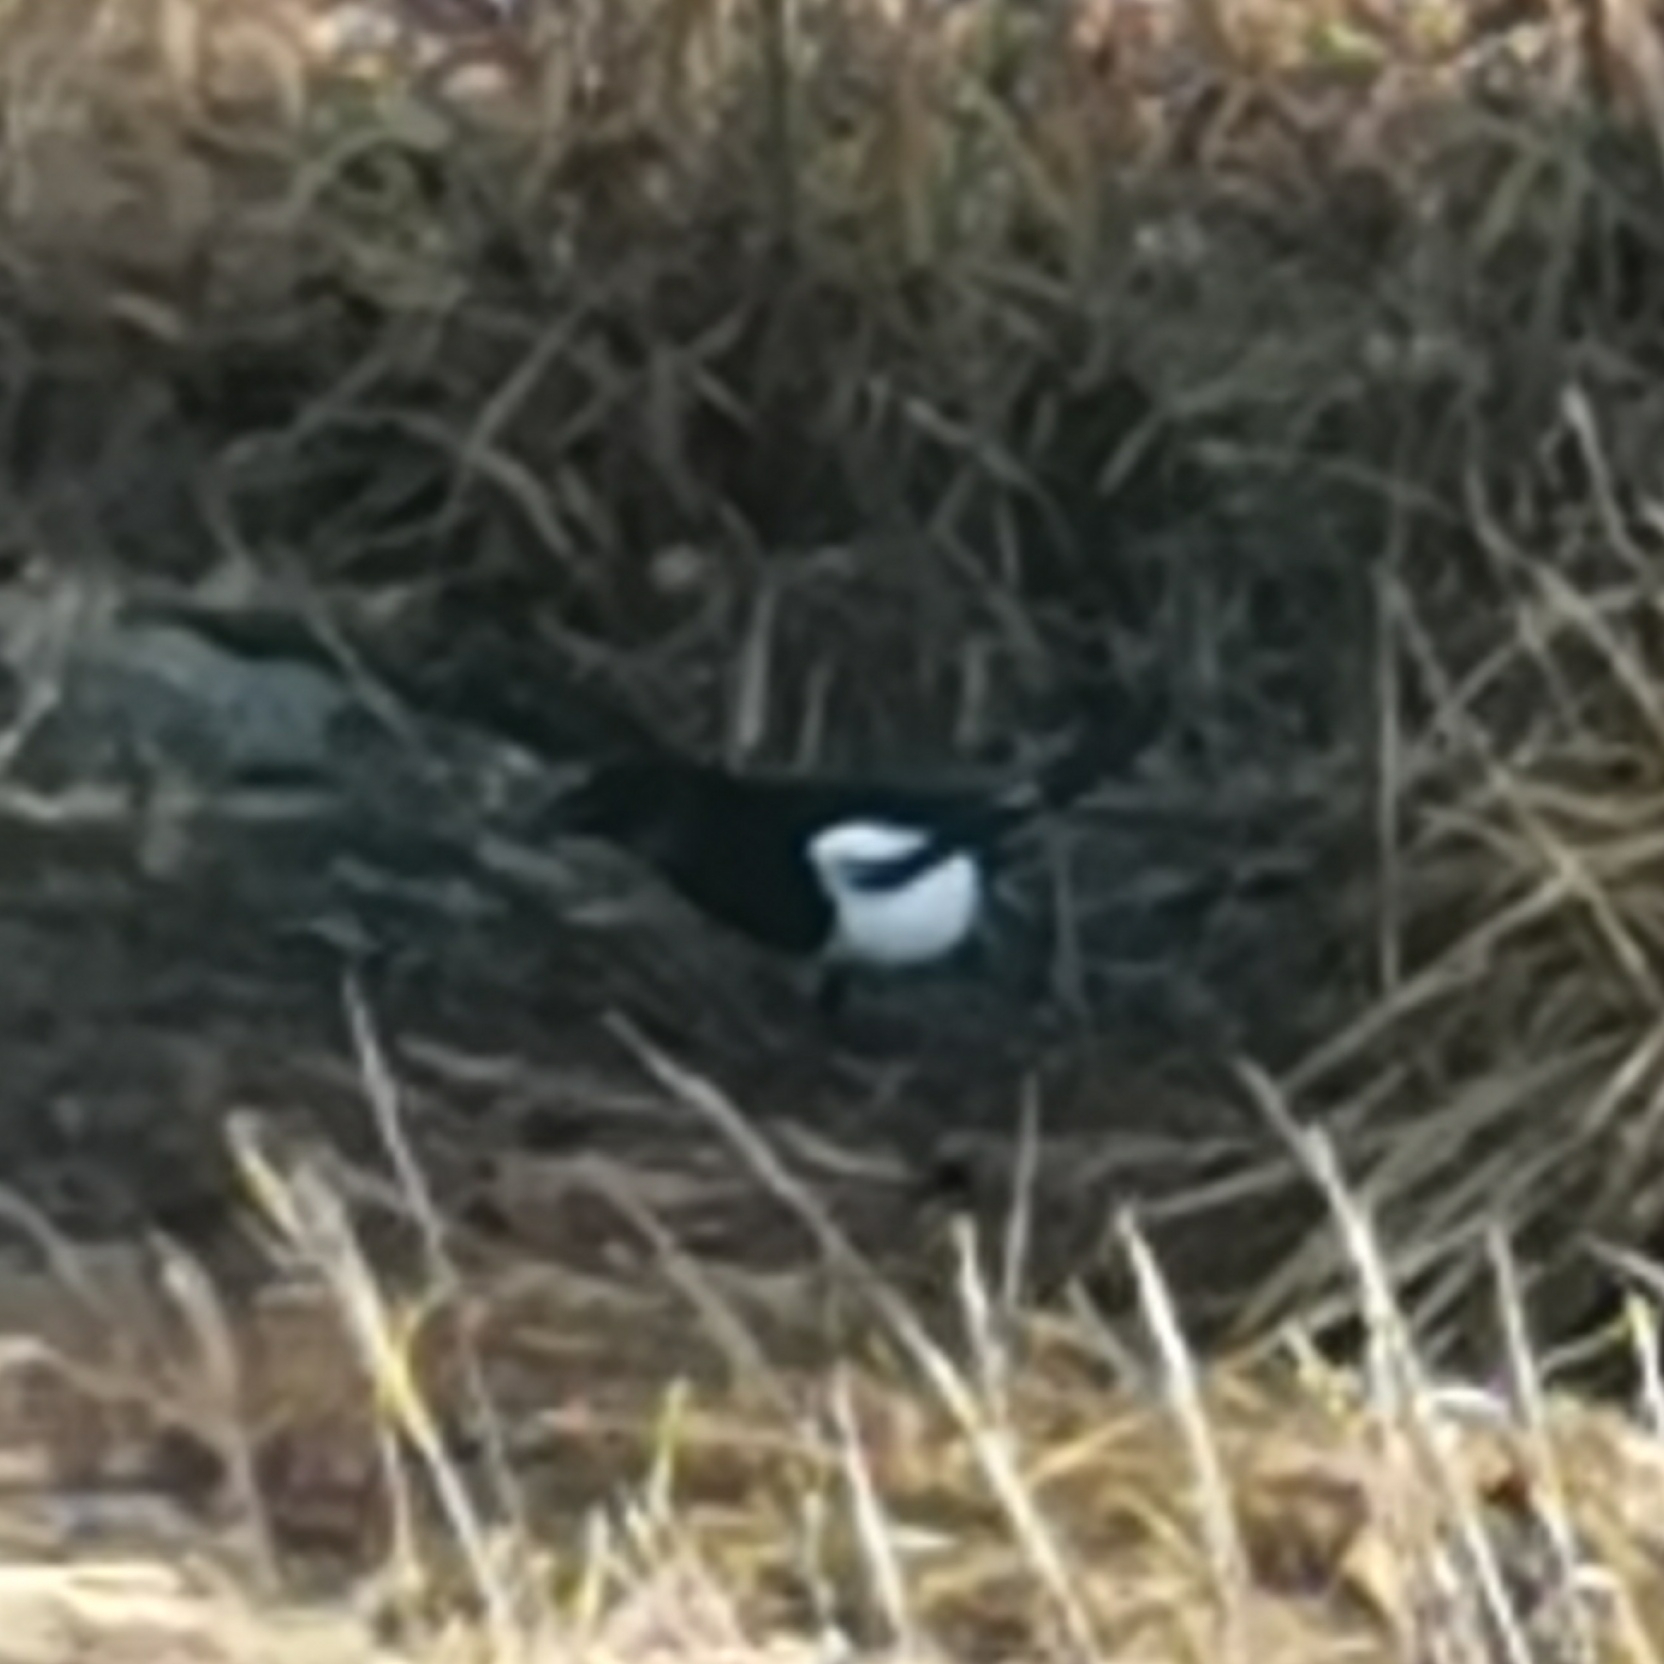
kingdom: Animalia
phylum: Chordata
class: Aves
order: Passeriformes
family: Corvidae
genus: Pica
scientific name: Pica pica
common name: Eurasian magpie
